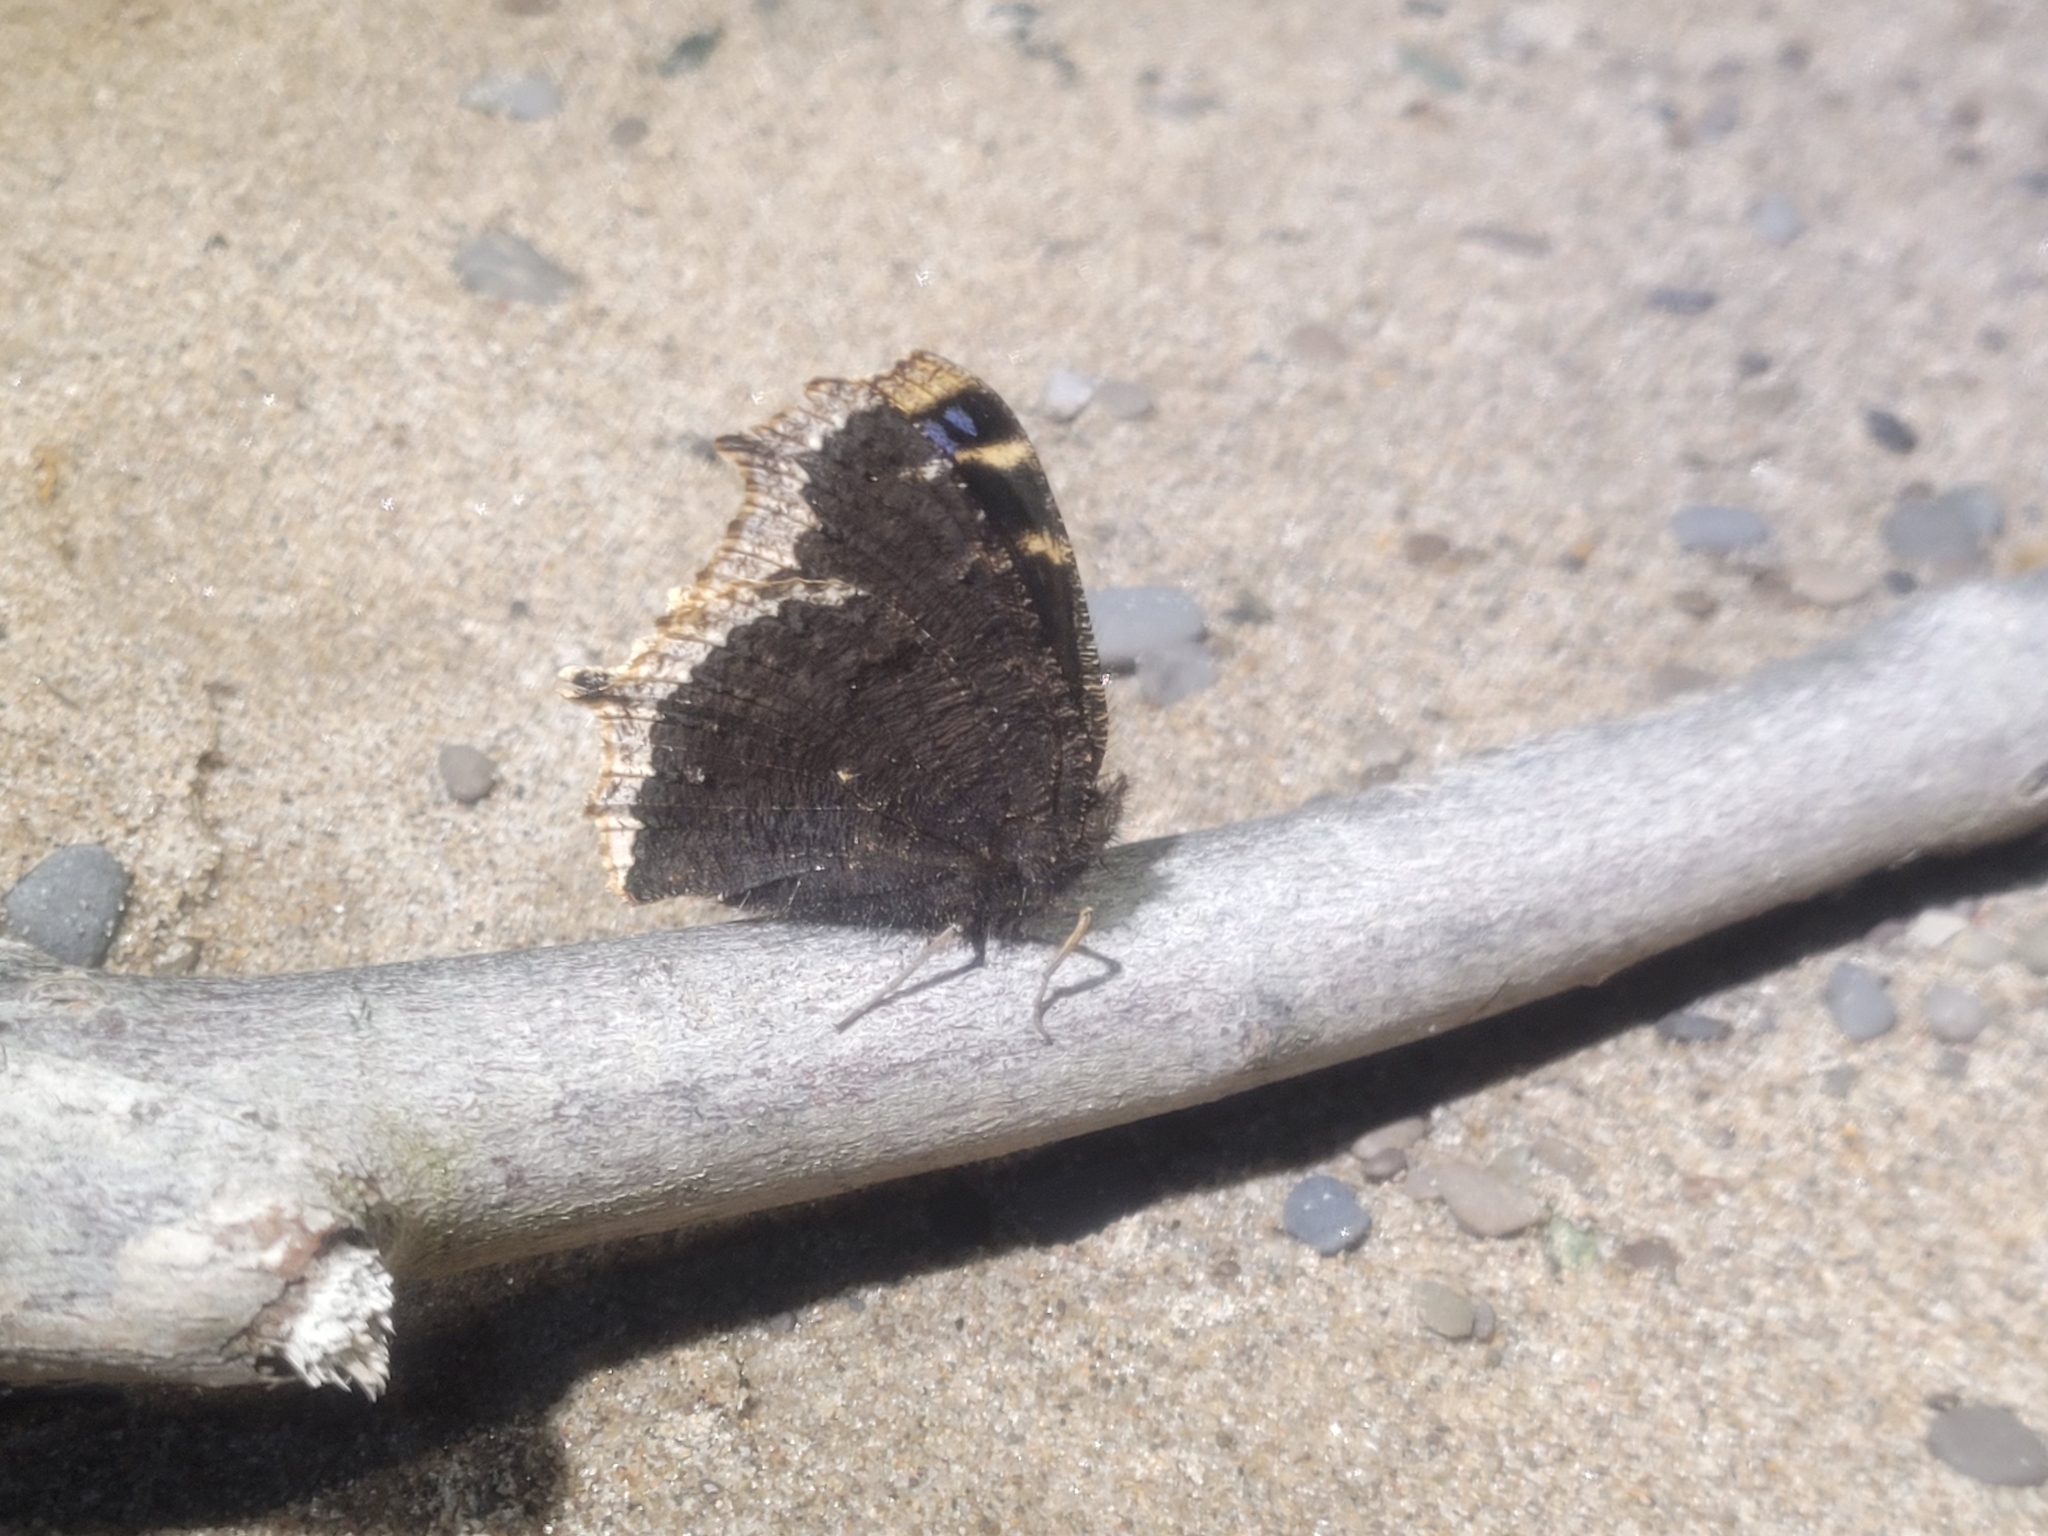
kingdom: Animalia
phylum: Arthropoda
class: Insecta
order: Lepidoptera
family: Nymphalidae
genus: Nymphalis
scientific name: Nymphalis antiopa
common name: Camberwell beauty
